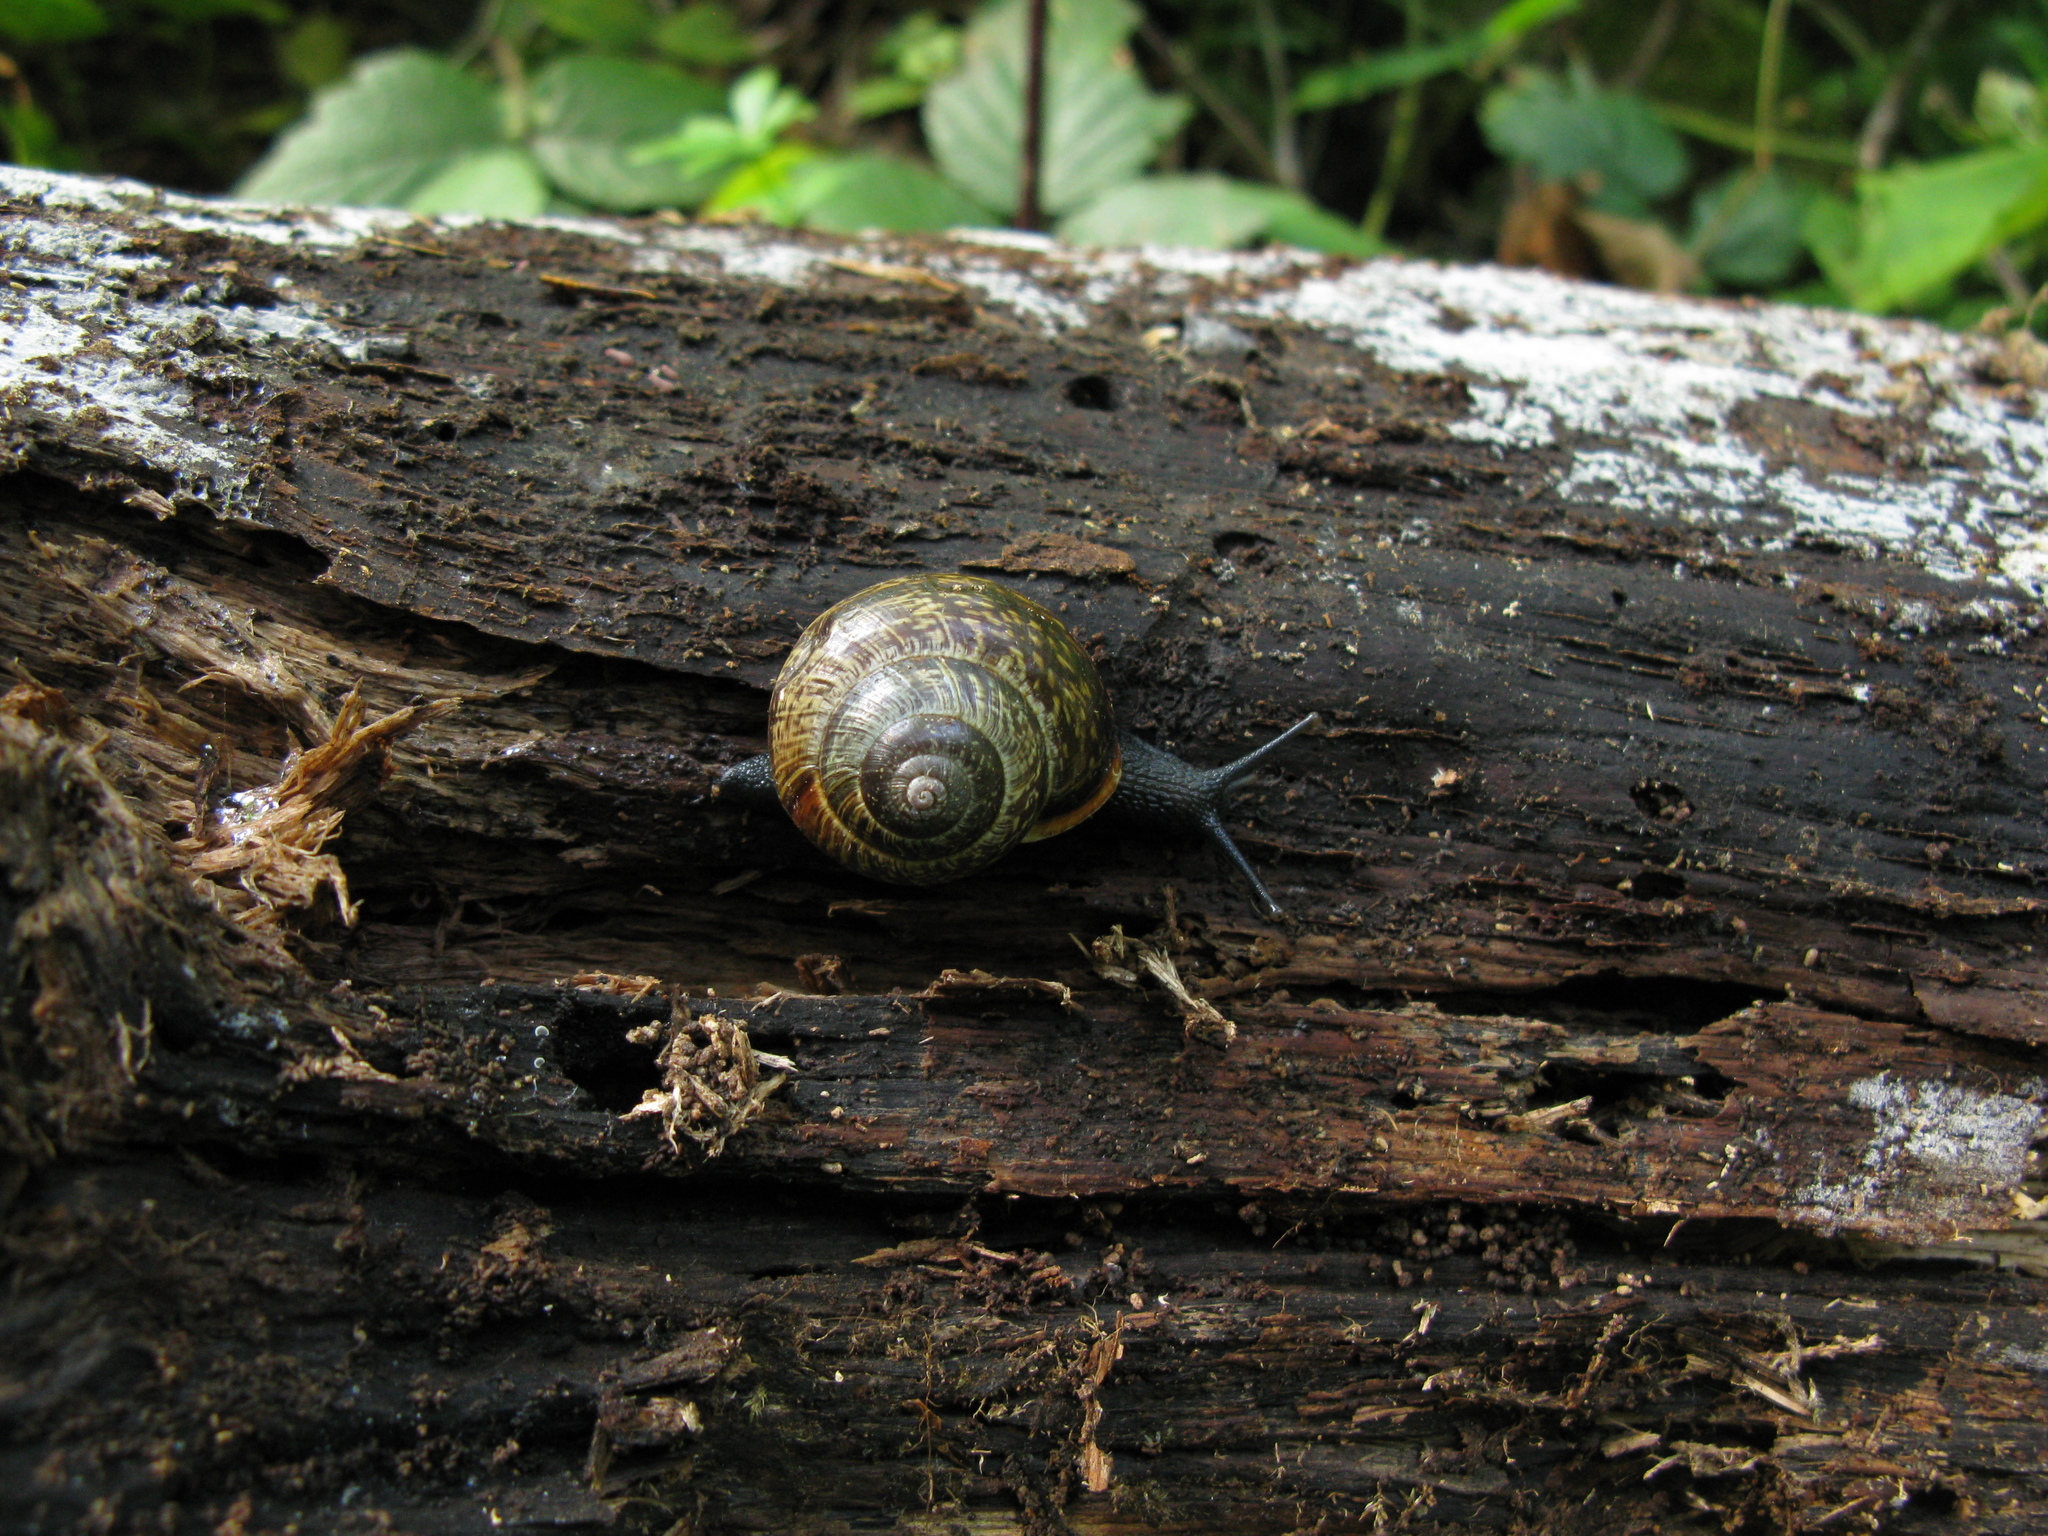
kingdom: Animalia
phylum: Mollusca
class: Gastropoda
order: Stylommatophora
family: Helicidae
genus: Arianta
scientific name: Arianta arbustorum
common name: Copse snail
